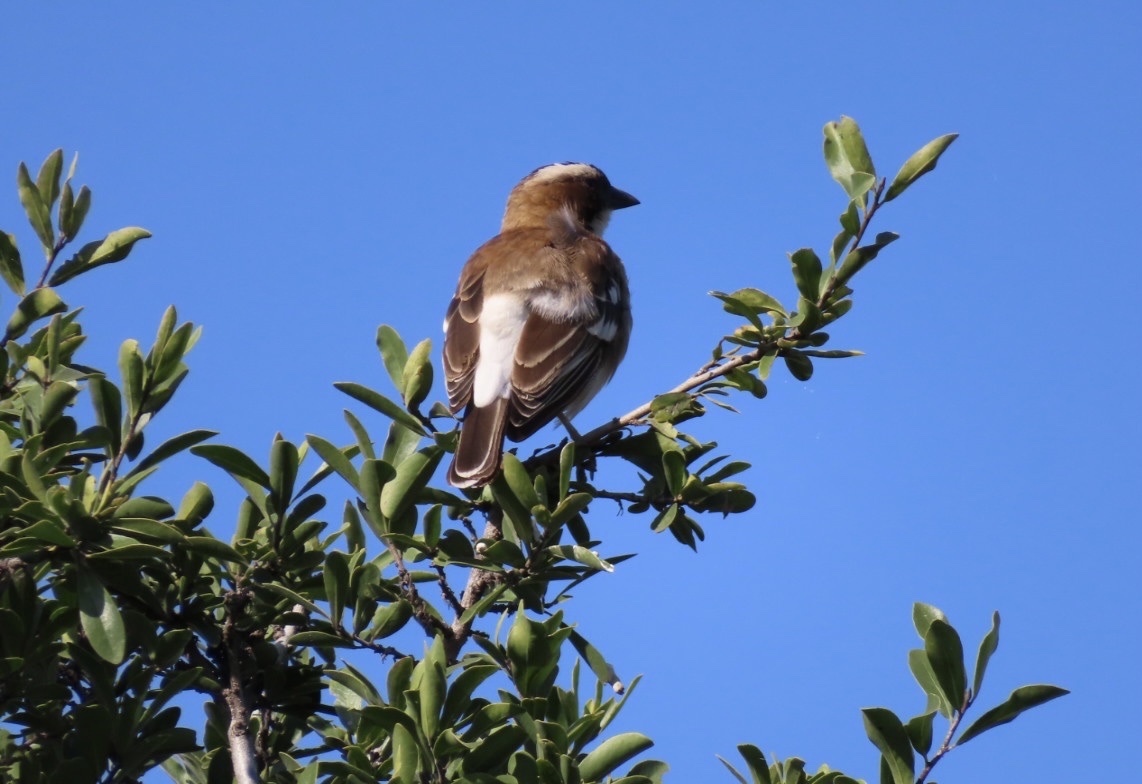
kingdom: Animalia
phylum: Chordata
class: Aves
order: Passeriformes
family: Passeridae
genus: Plocepasser
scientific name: Plocepasser mahali
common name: White-browed sparrow-weaver
